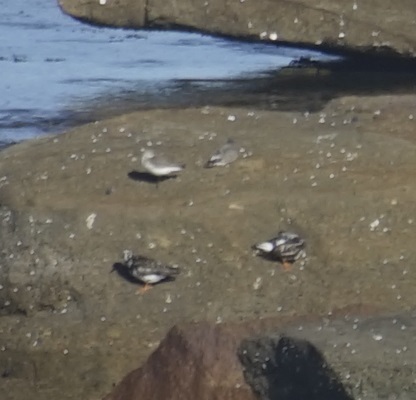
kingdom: Animalia
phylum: Chordata
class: Aves
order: Charadriiformes
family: Scolopacidae
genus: Arenaria
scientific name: Arenaria interpres
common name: Ruddy turnstone
